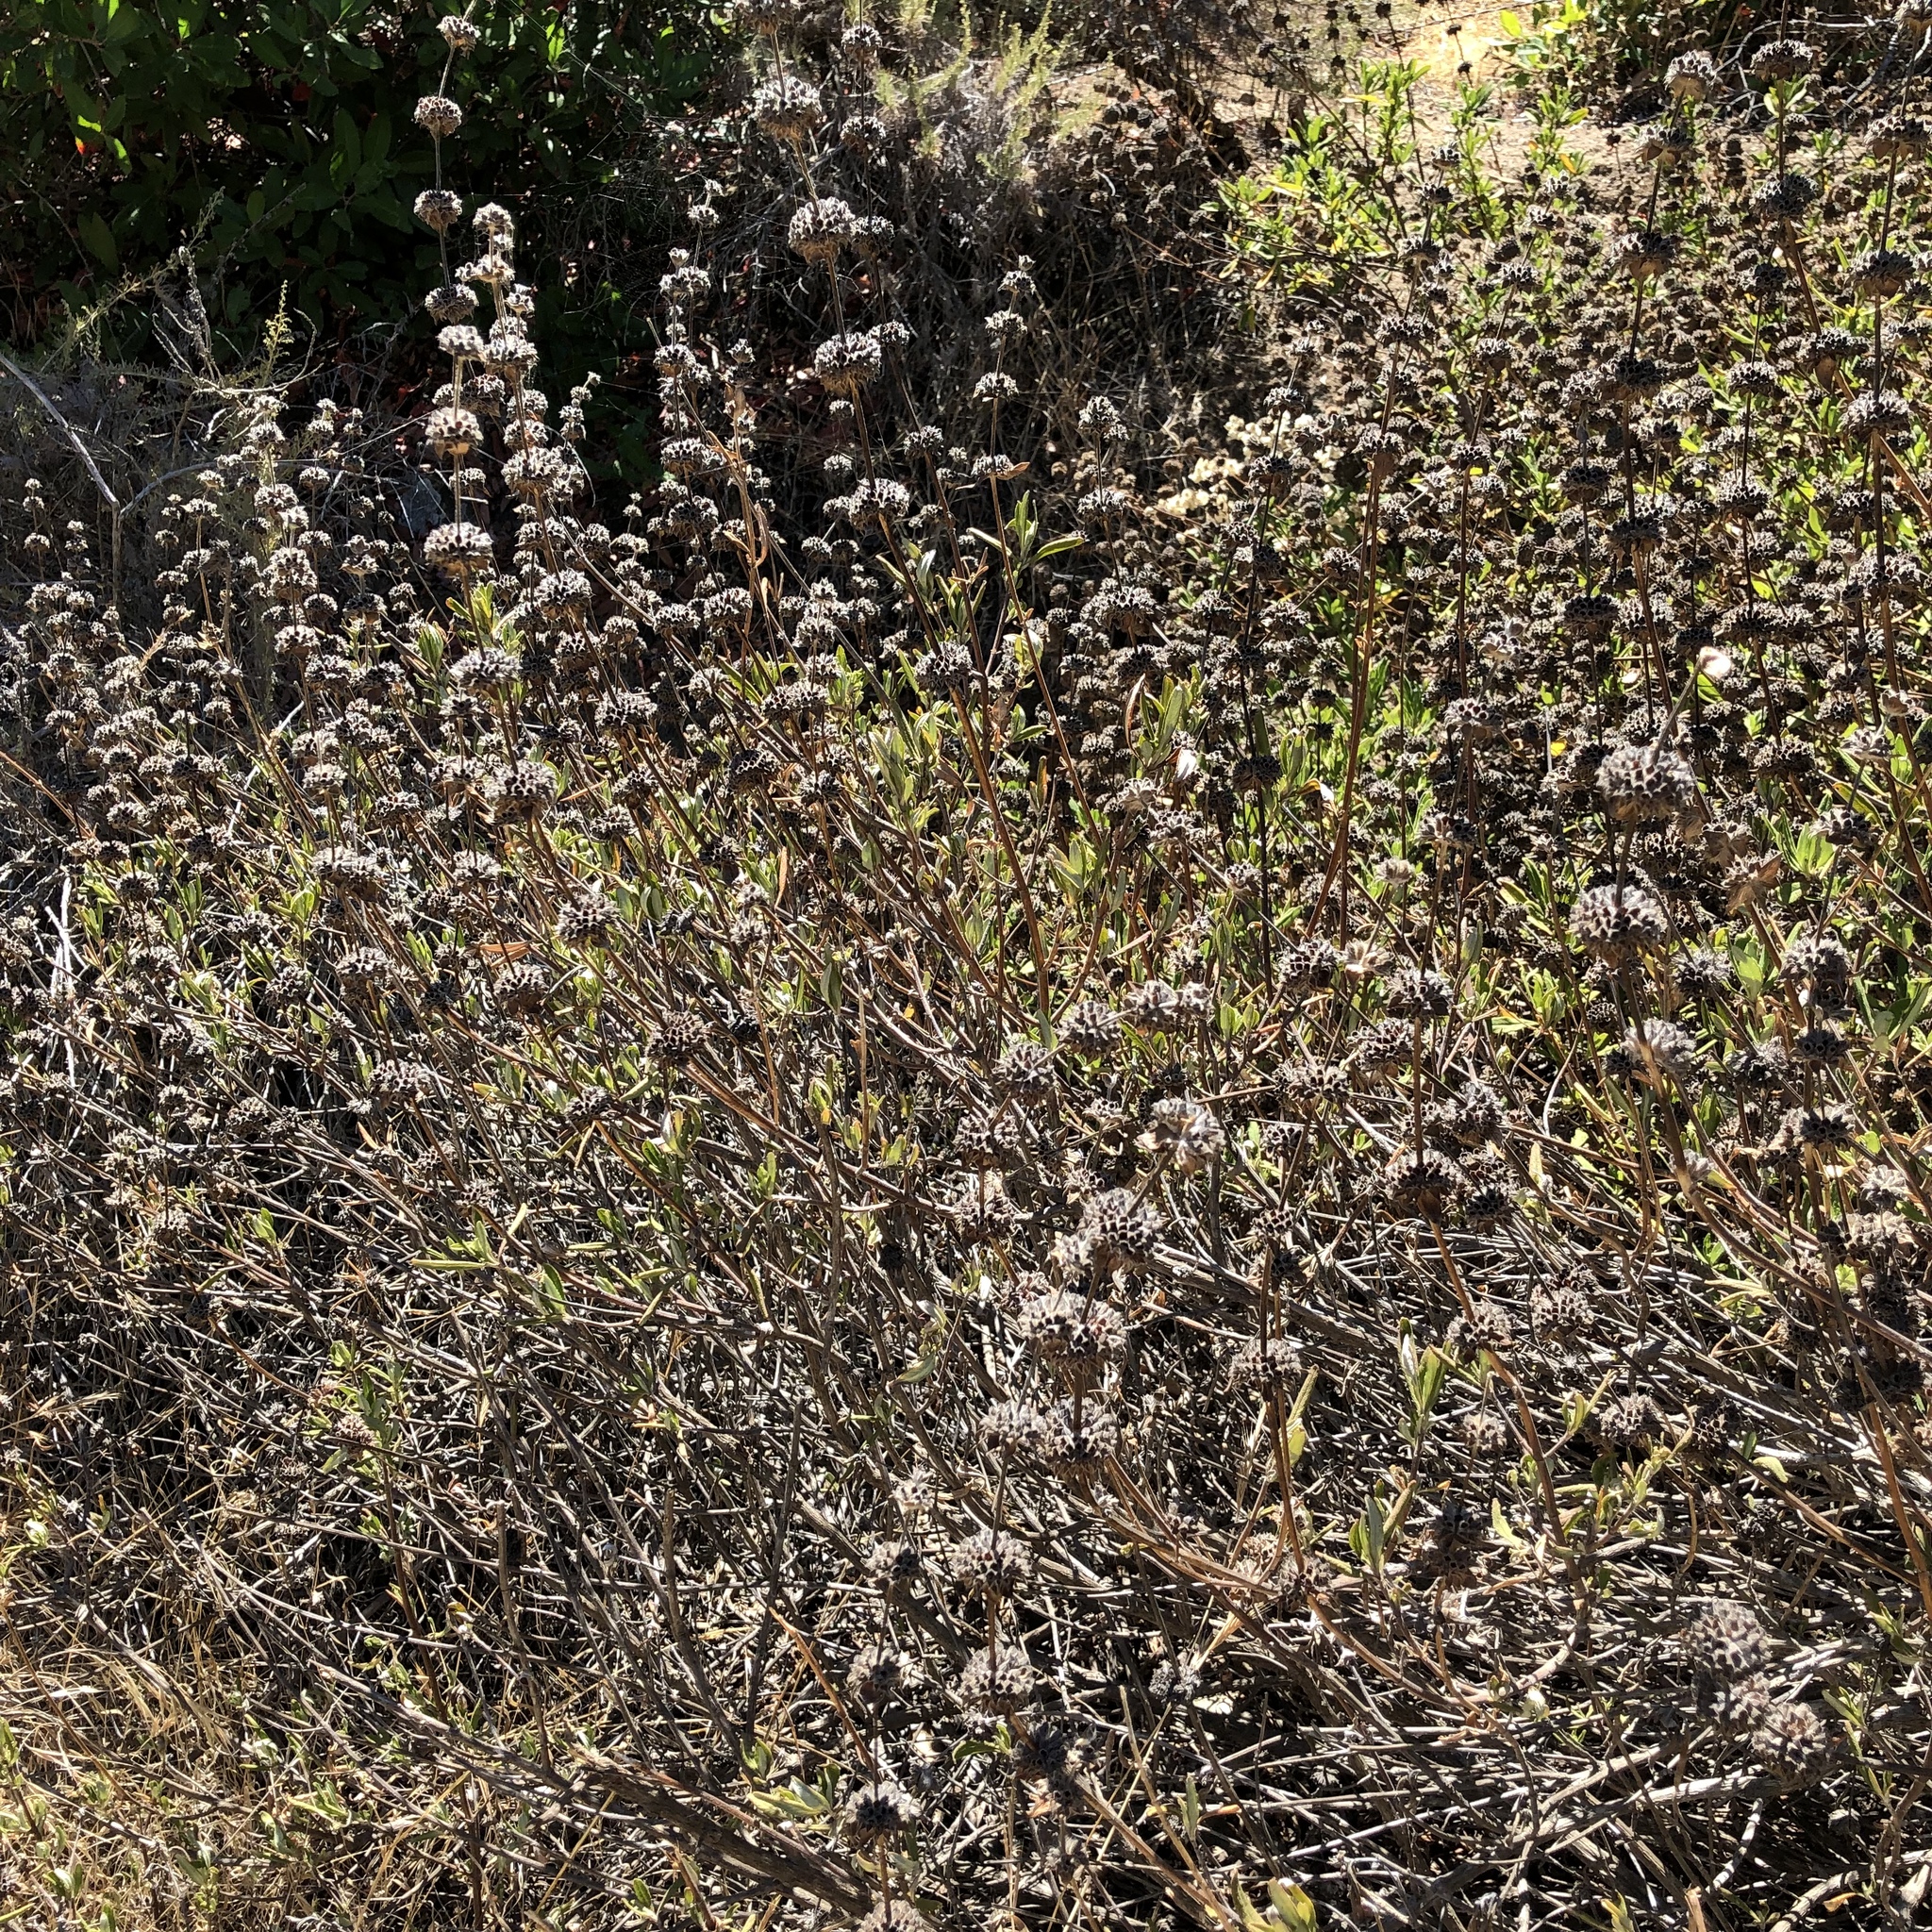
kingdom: Plantae
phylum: Tracheophyta
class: Magnoliopsida
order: Lamiales
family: Lamiaceae
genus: Salvia
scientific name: Salvia mellifera
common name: Black sage
